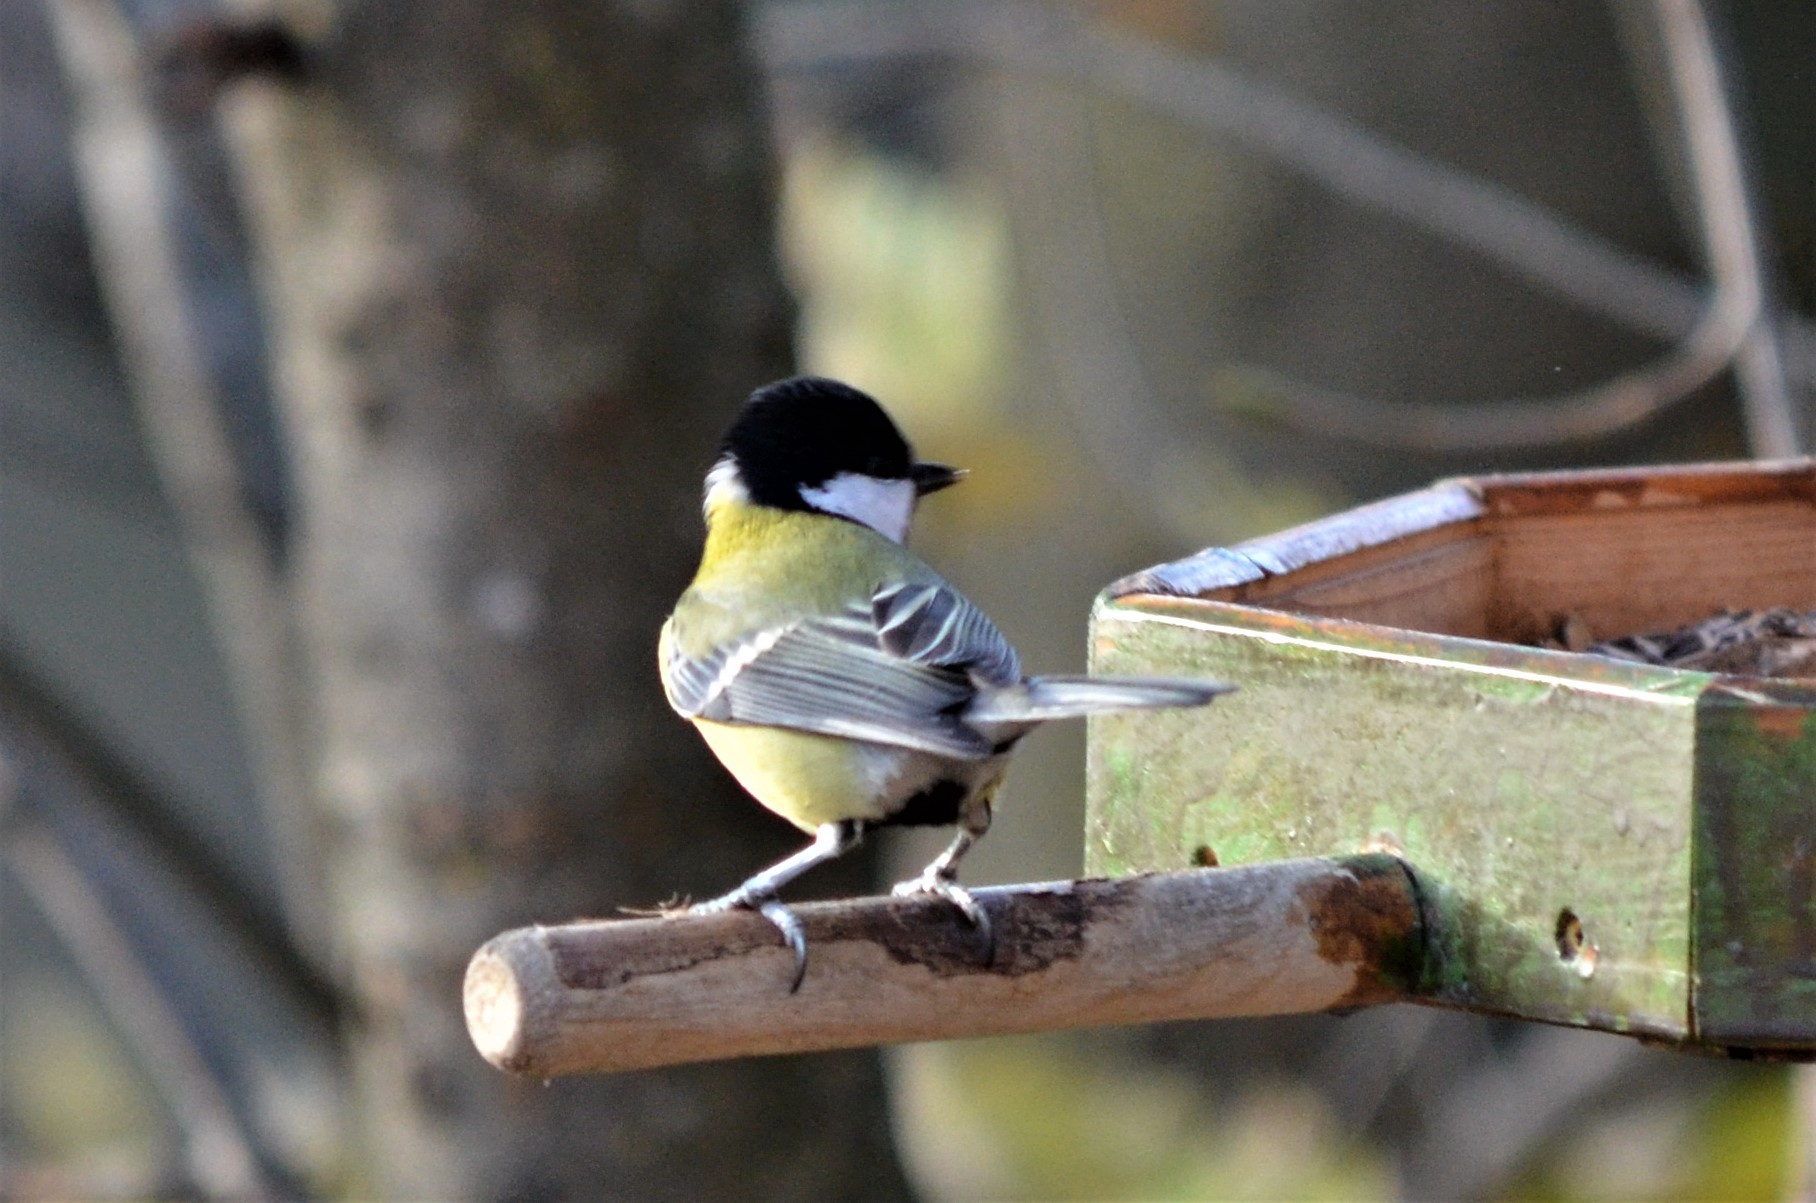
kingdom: Animalia
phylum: Chordata
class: Aves
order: Passeriformes
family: Paridae
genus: Parus
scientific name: Parus major
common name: Great tit
